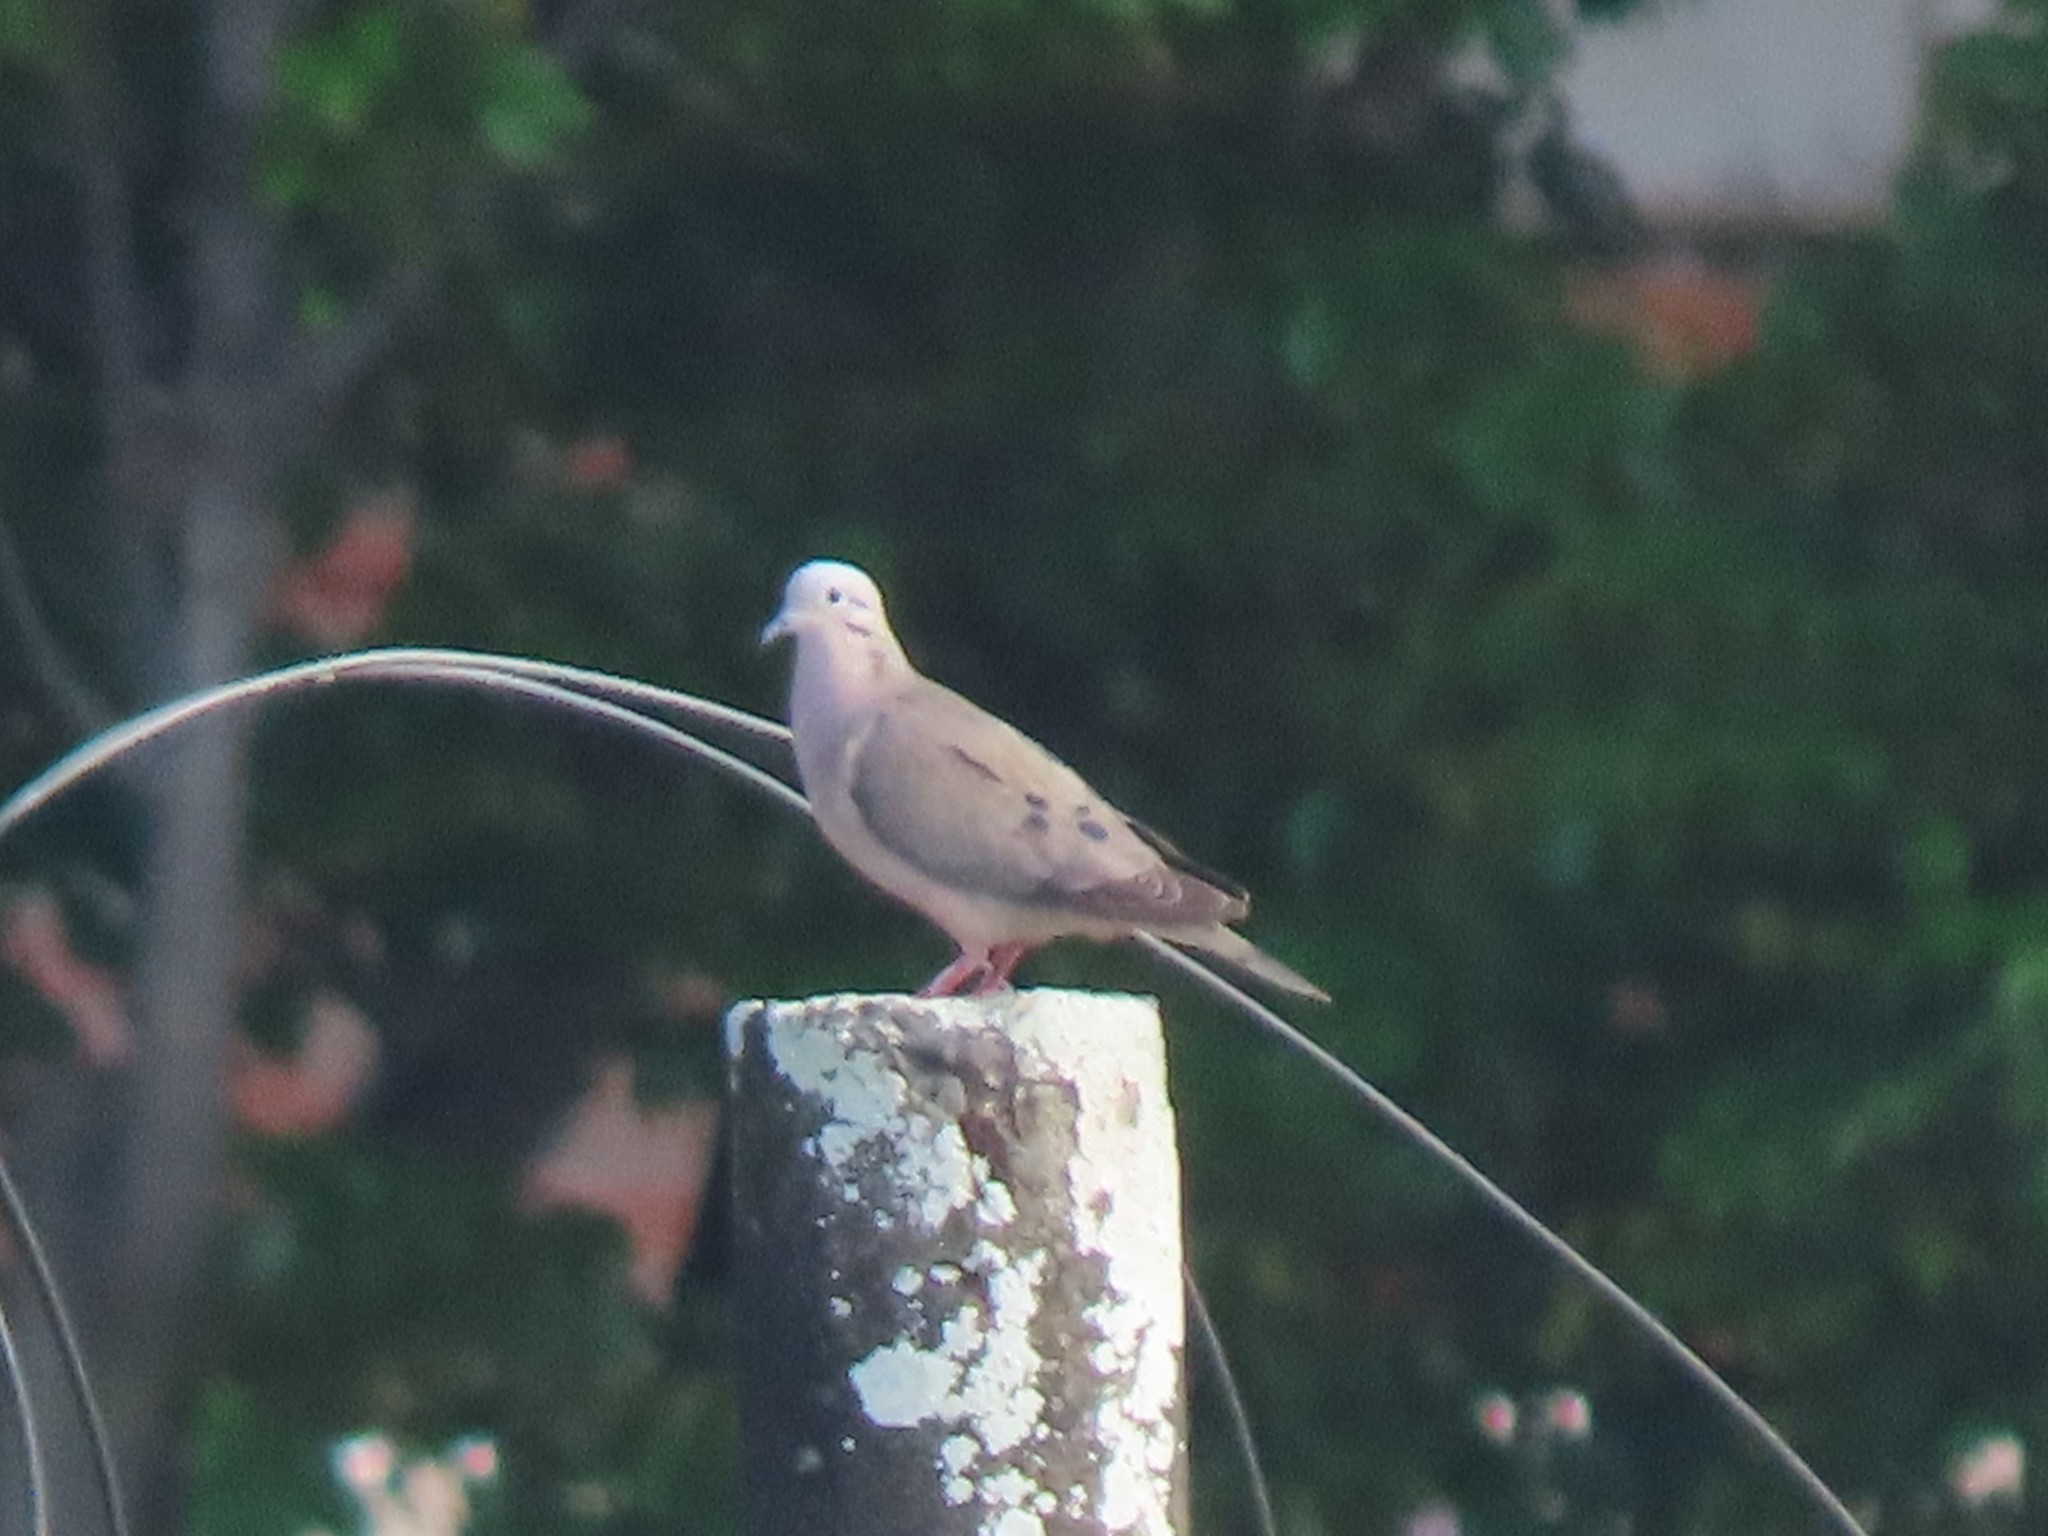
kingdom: Animalia
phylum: Chordata
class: Aves
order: Columbiformes
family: Columbidae
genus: Zenaida
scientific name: Zenaida auriculata
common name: Eared dove
